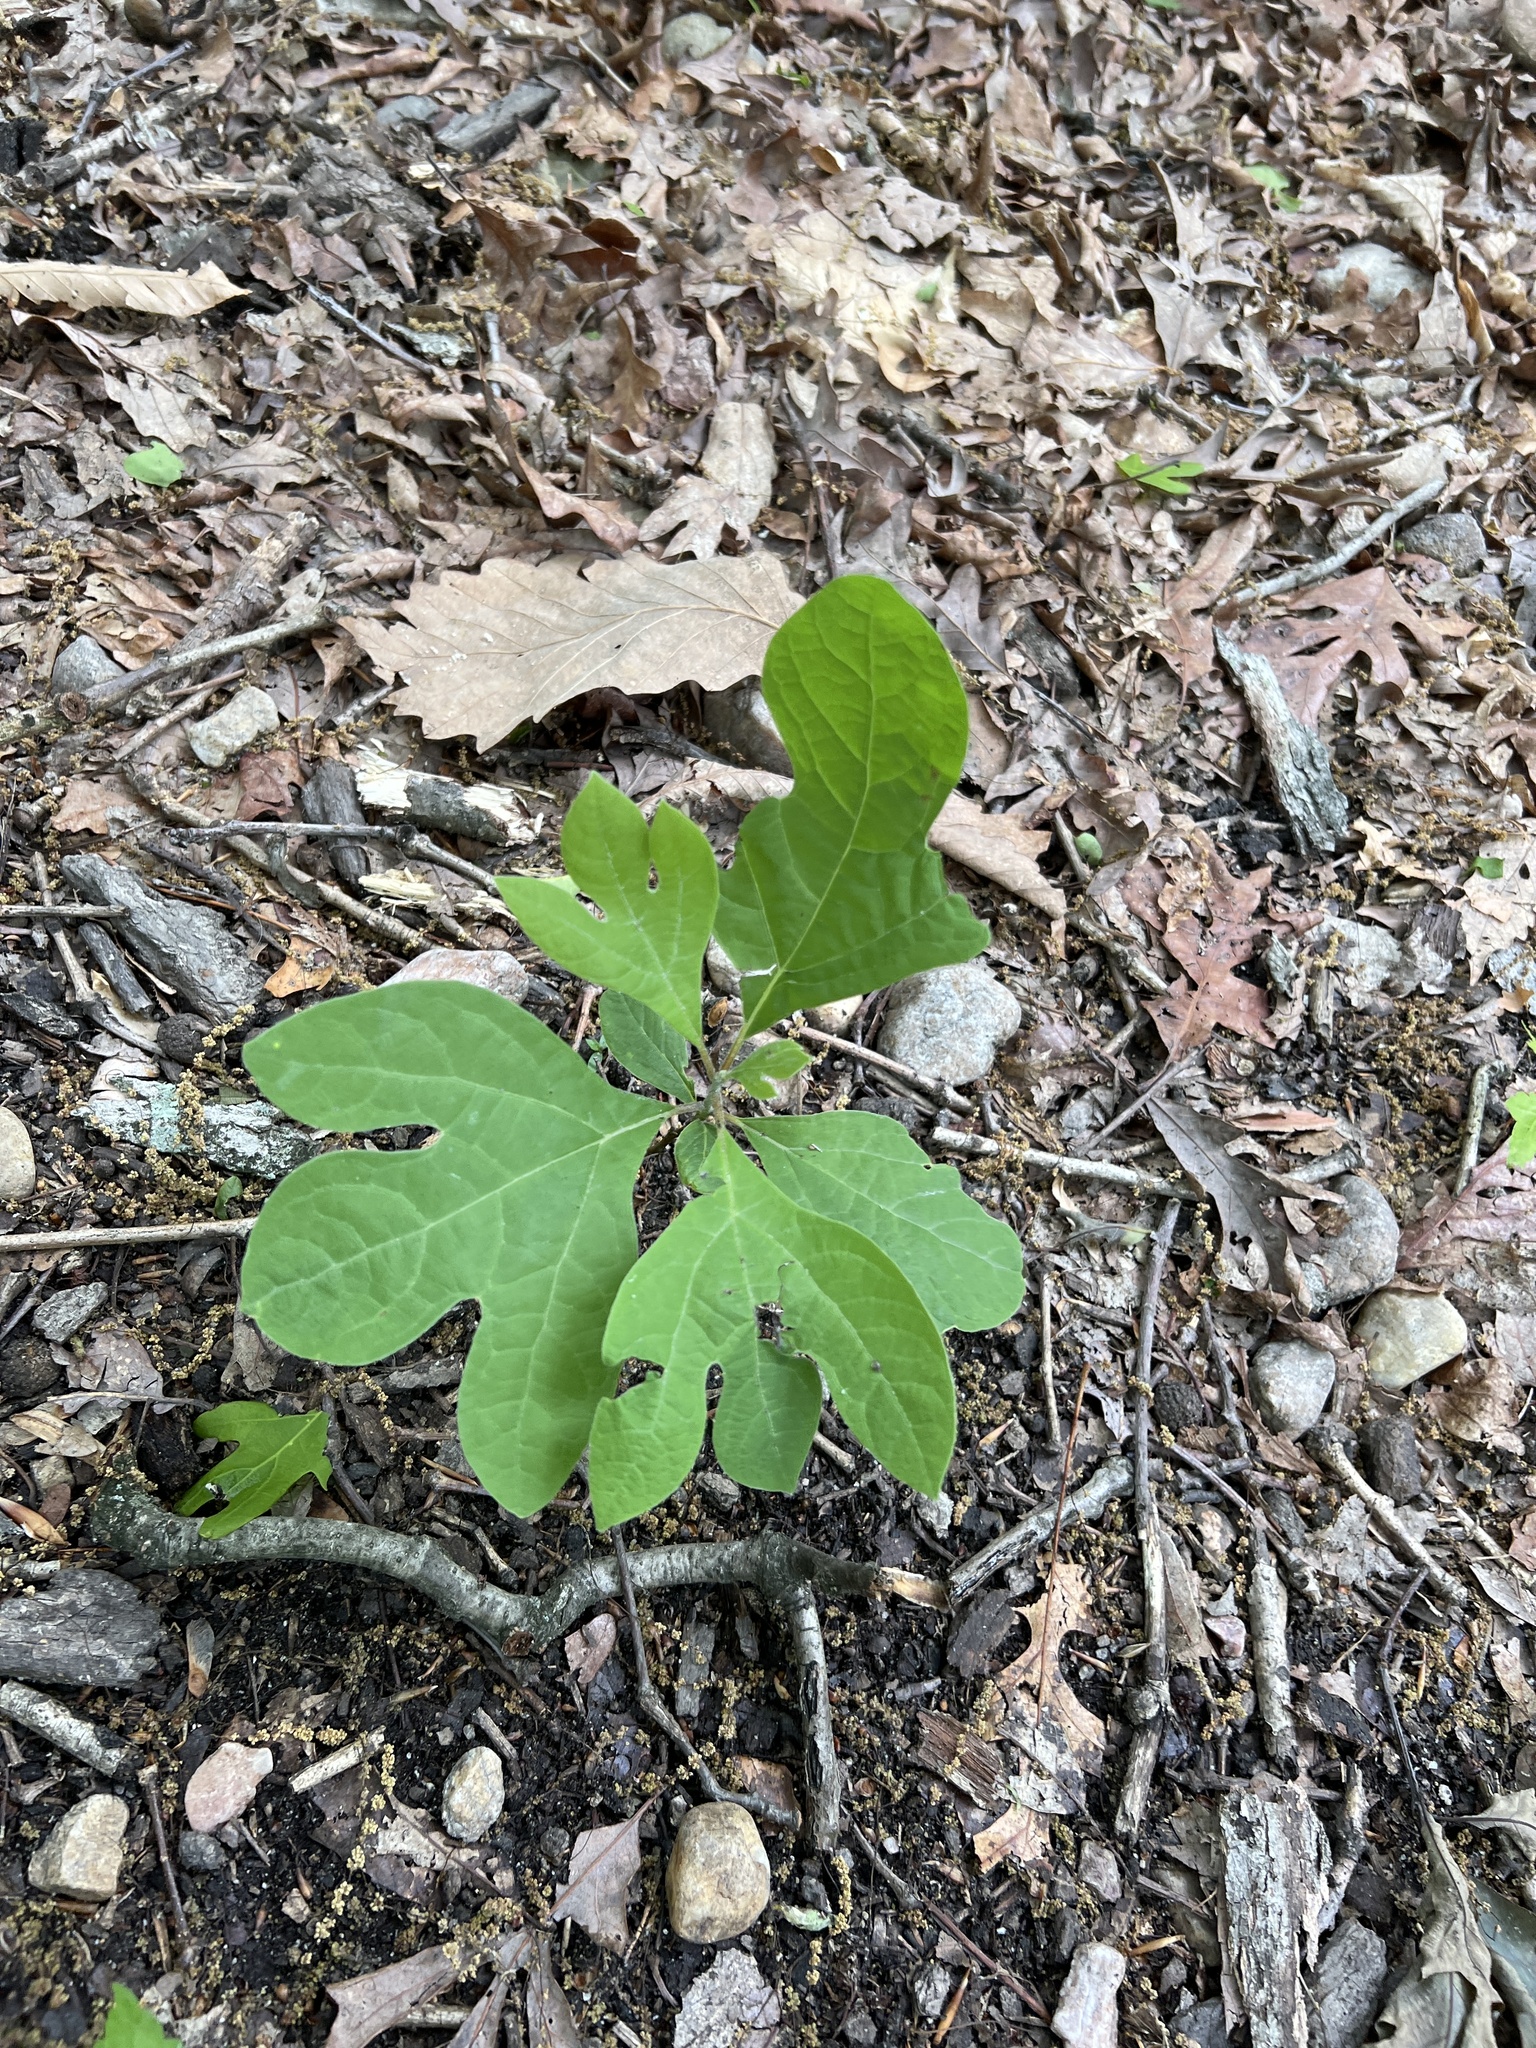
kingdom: Plantae
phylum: Tracheophyta
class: Magnoliopsida
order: Laurales
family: Lauraceae
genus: Sassafras
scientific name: Sassafras albidum
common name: Sassafras
